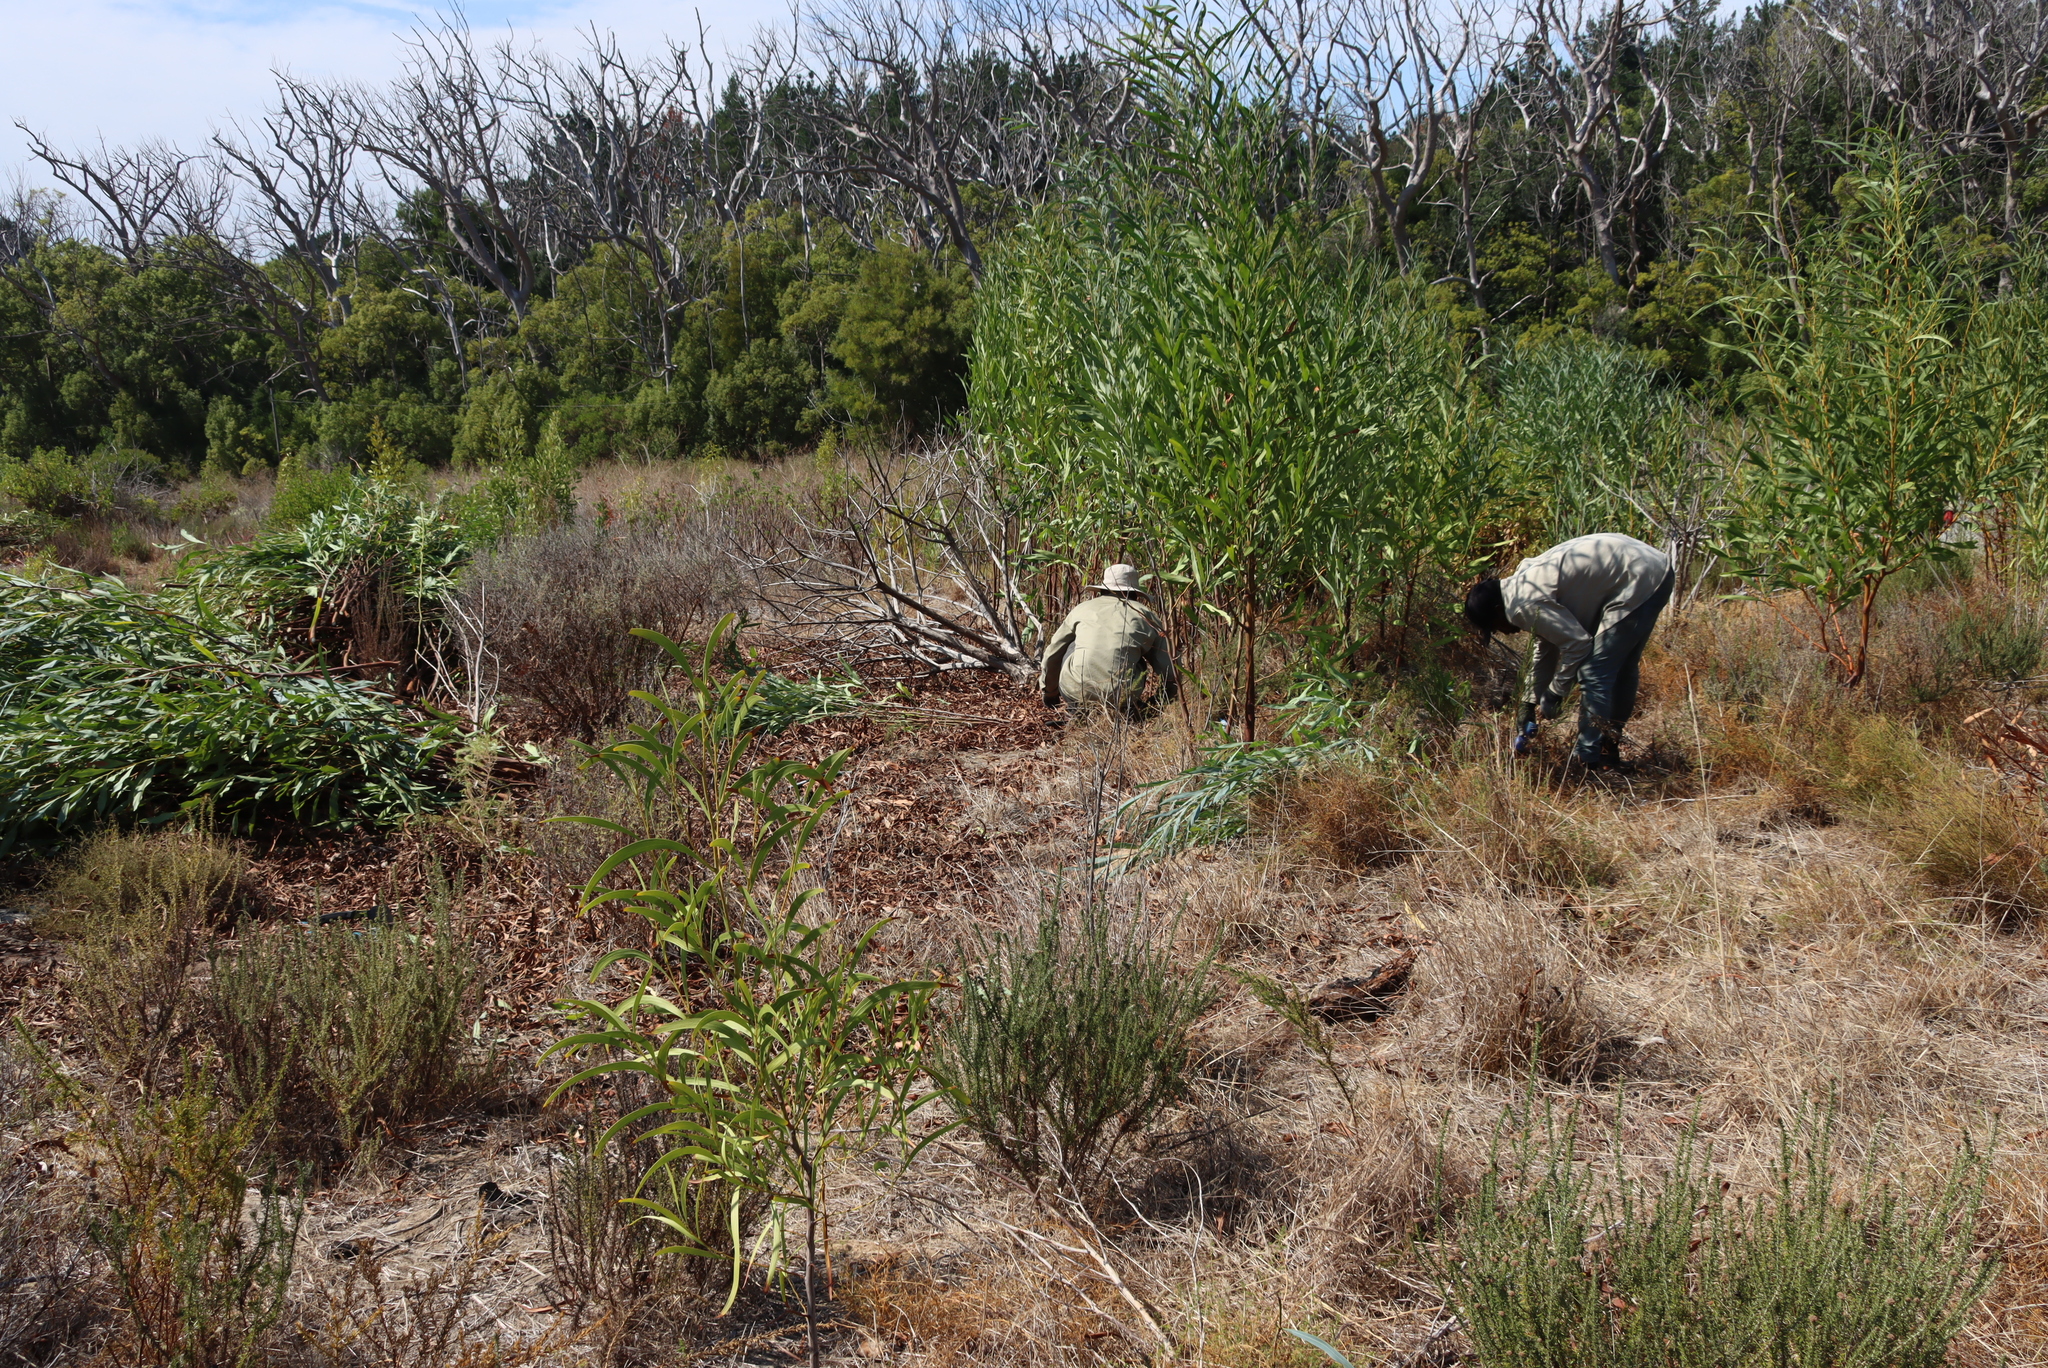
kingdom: Plantae
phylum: Tracheophyta
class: Magnoliopsida
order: Fabales
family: Fabaceae
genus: Acacia
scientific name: Acacia saligna
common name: Orange wattle
